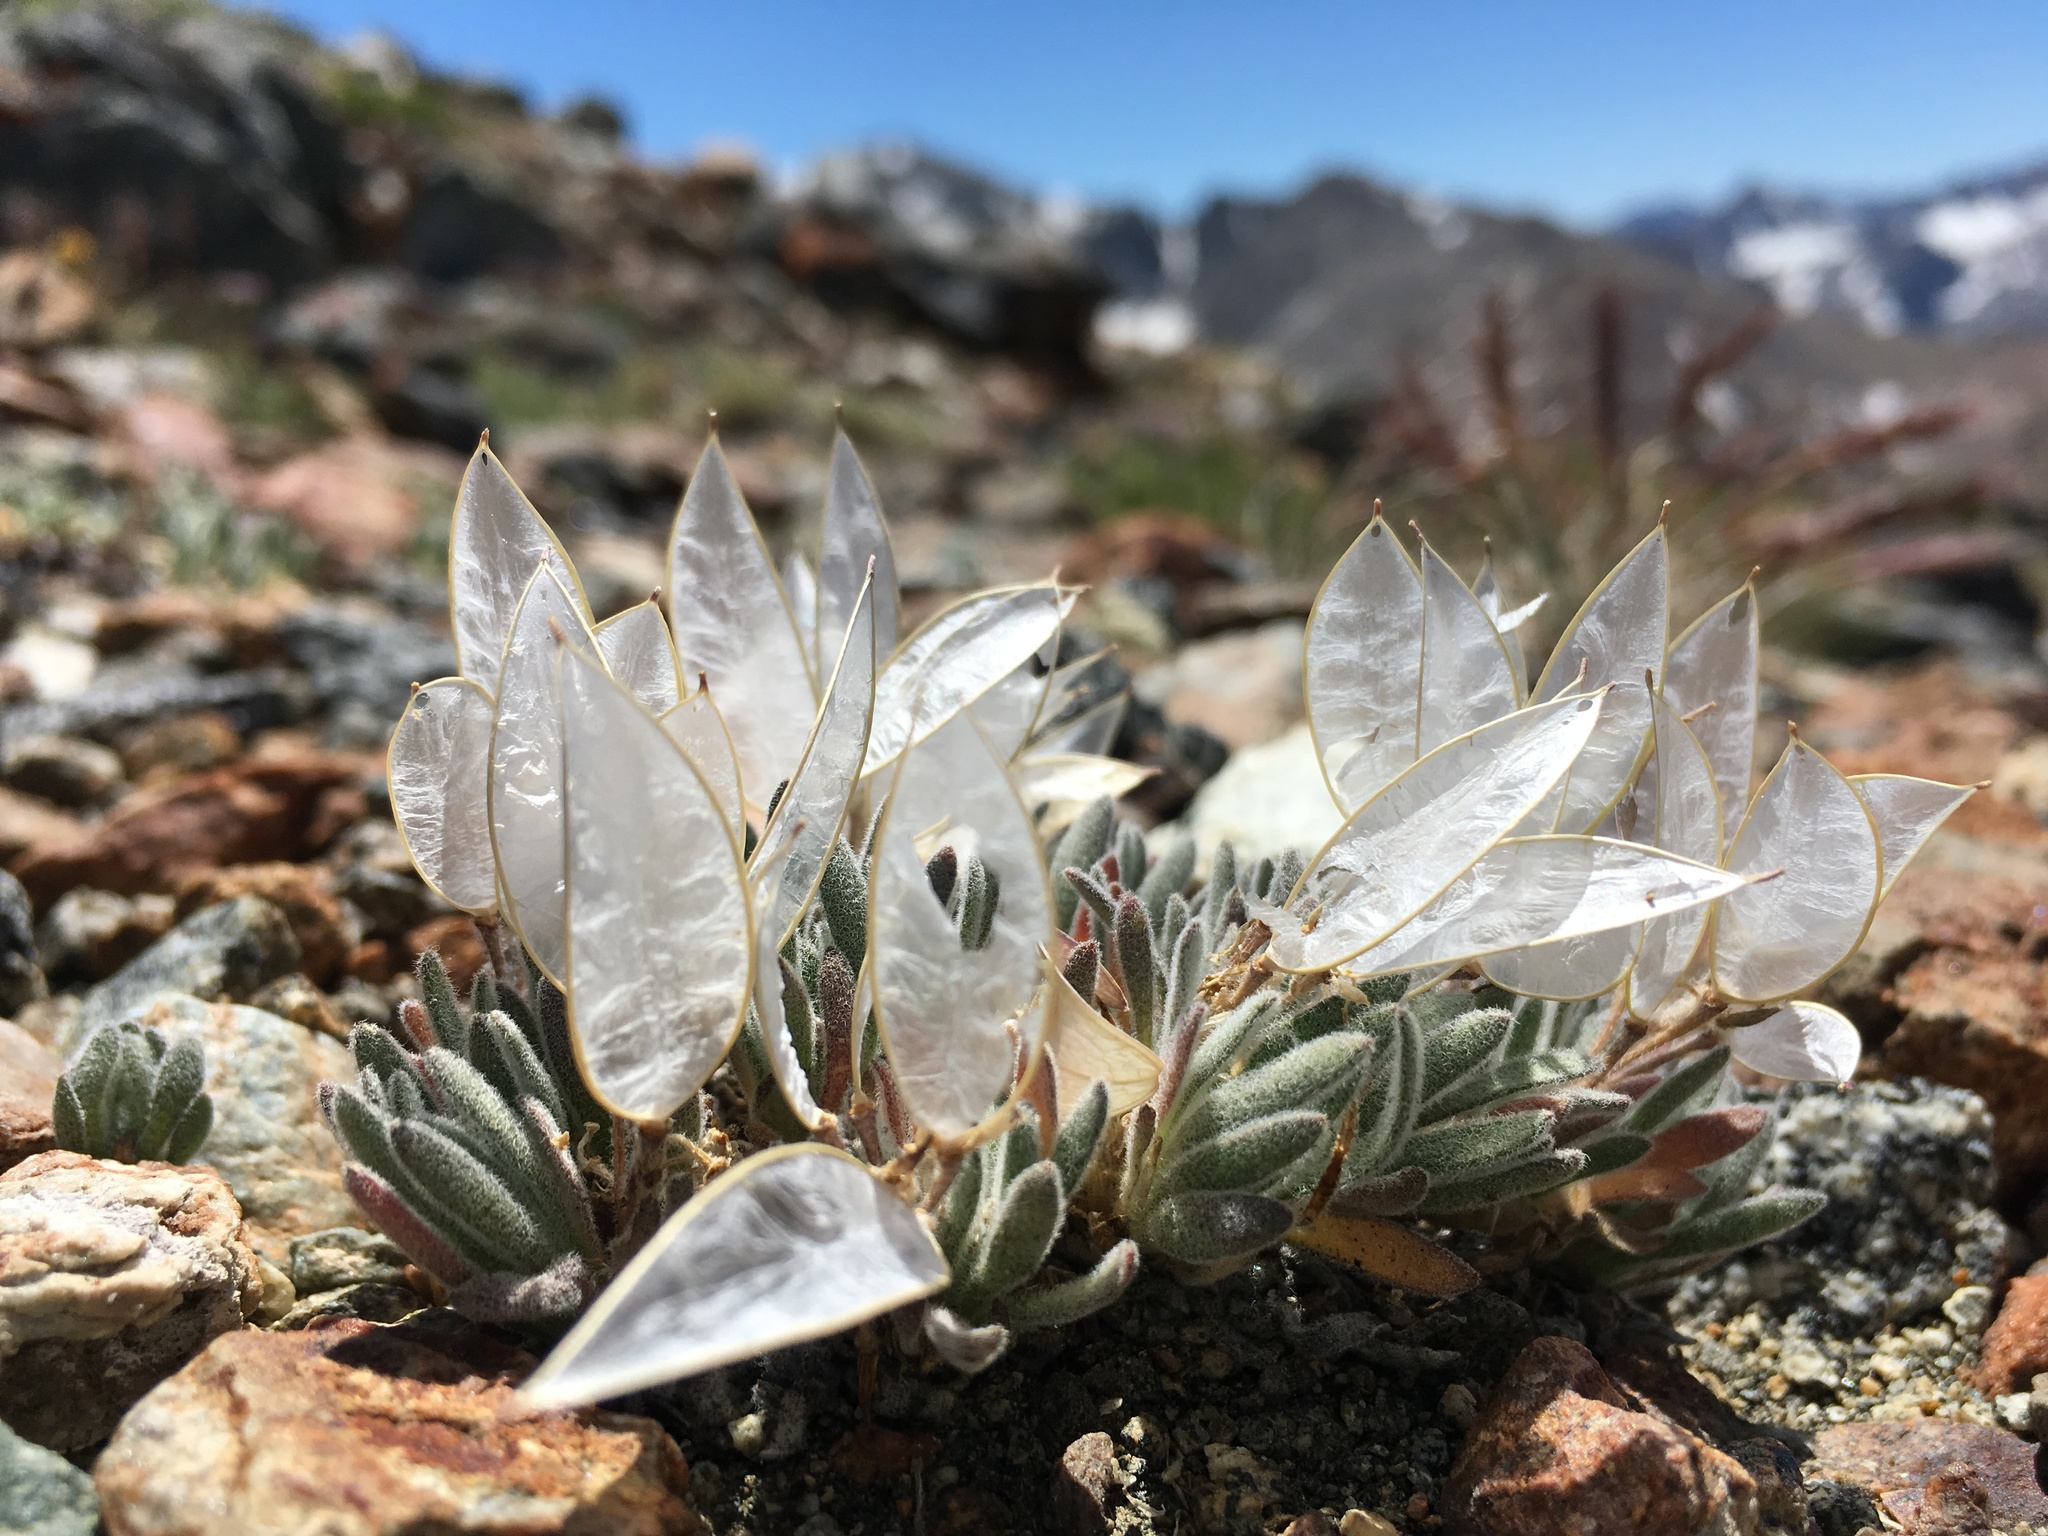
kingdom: Plantae
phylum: Tracheophyta
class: Magnoliopsida
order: Brassicales
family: Brassicaceae
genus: Anelsonia
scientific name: Anelsonia eurycarpa
